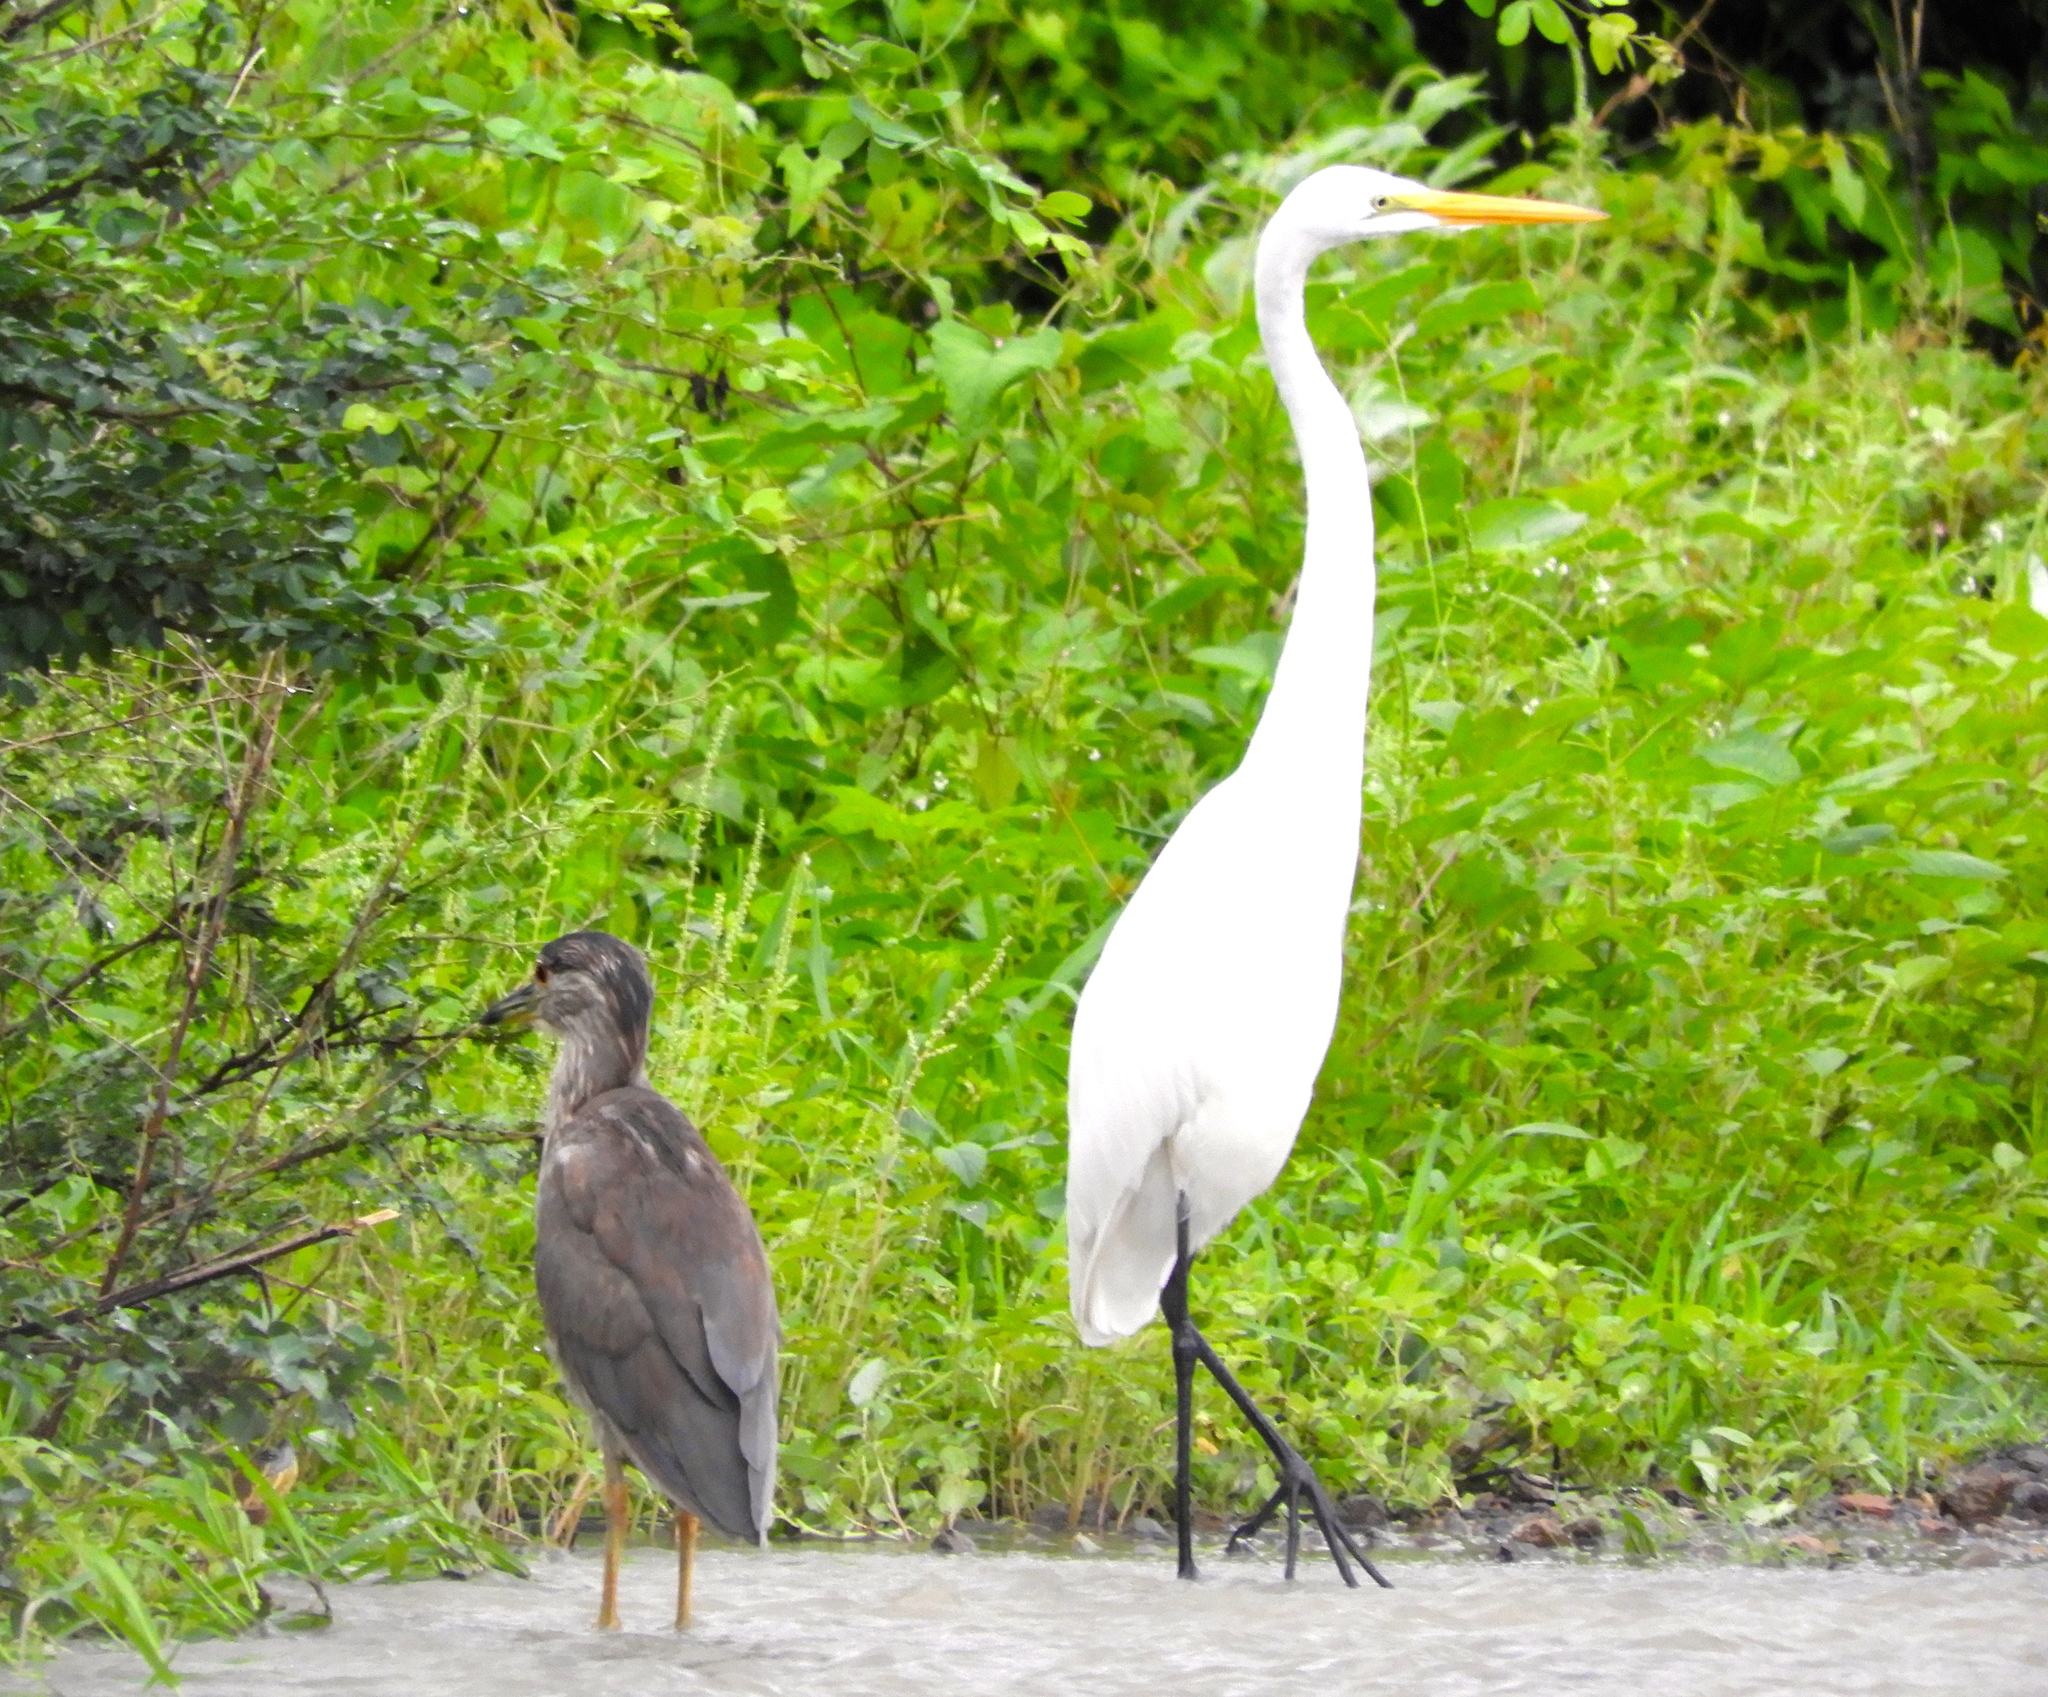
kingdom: Animalia
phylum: Chordata
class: Aves
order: Pelecaniformes
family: Ardeidae
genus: Ardea
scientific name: Ardea alba
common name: Great egret
